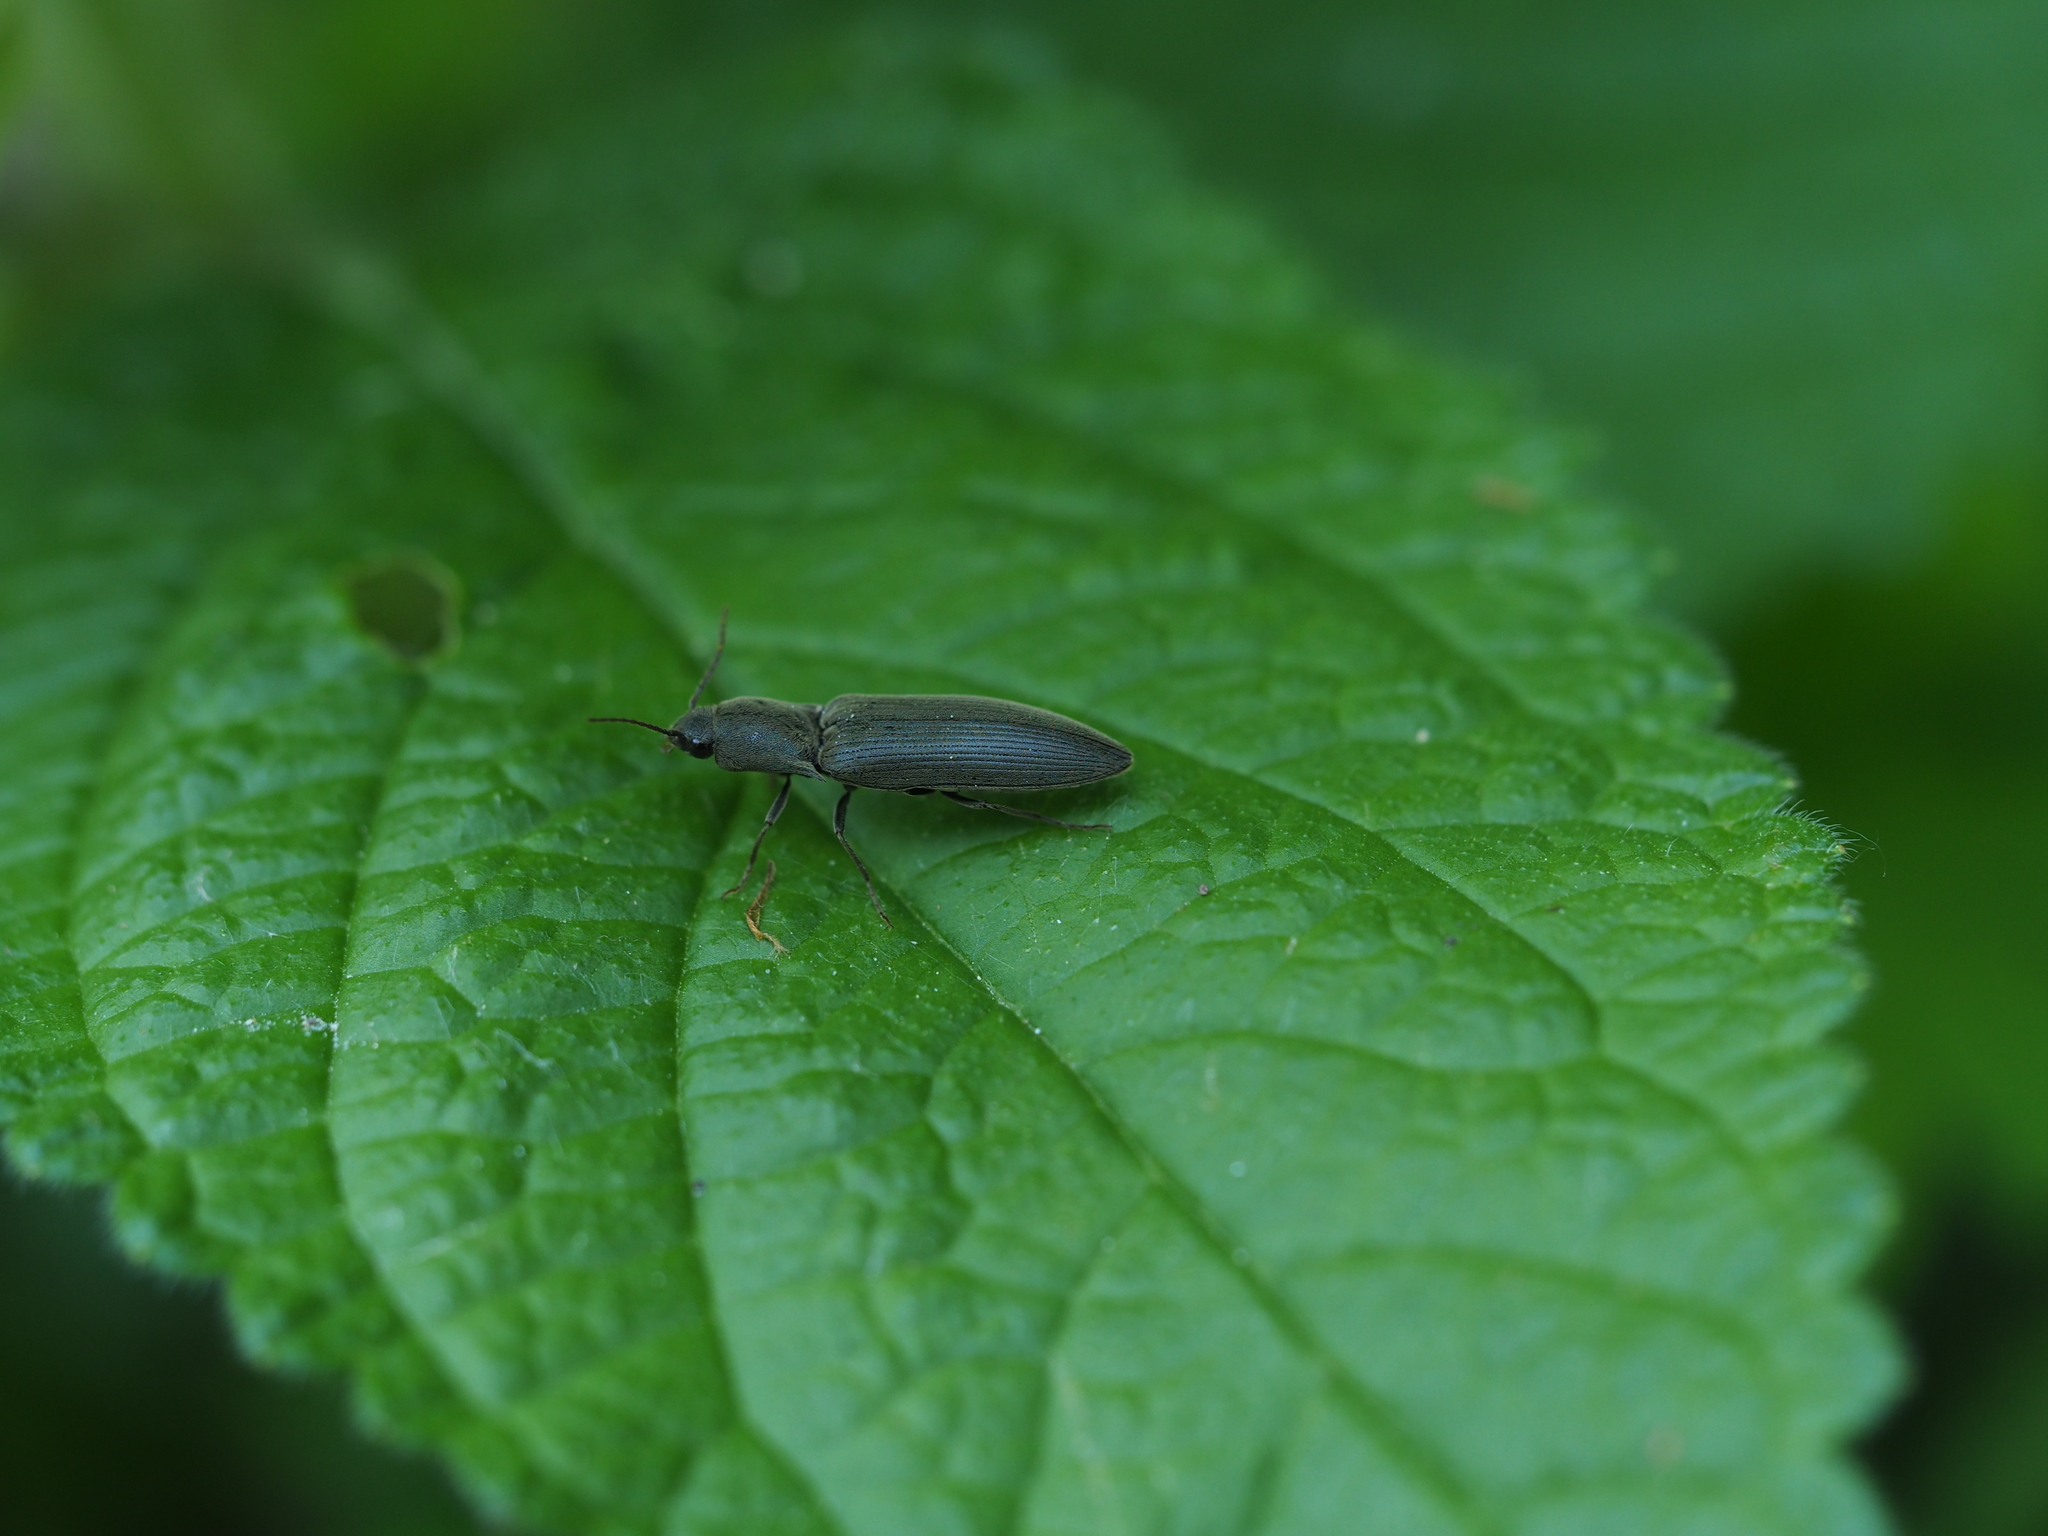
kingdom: Animalia
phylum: Arthropoda
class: Insecta
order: Coleoptera
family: Elateridae
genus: Agriotes
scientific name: Agriotes pilosellus
